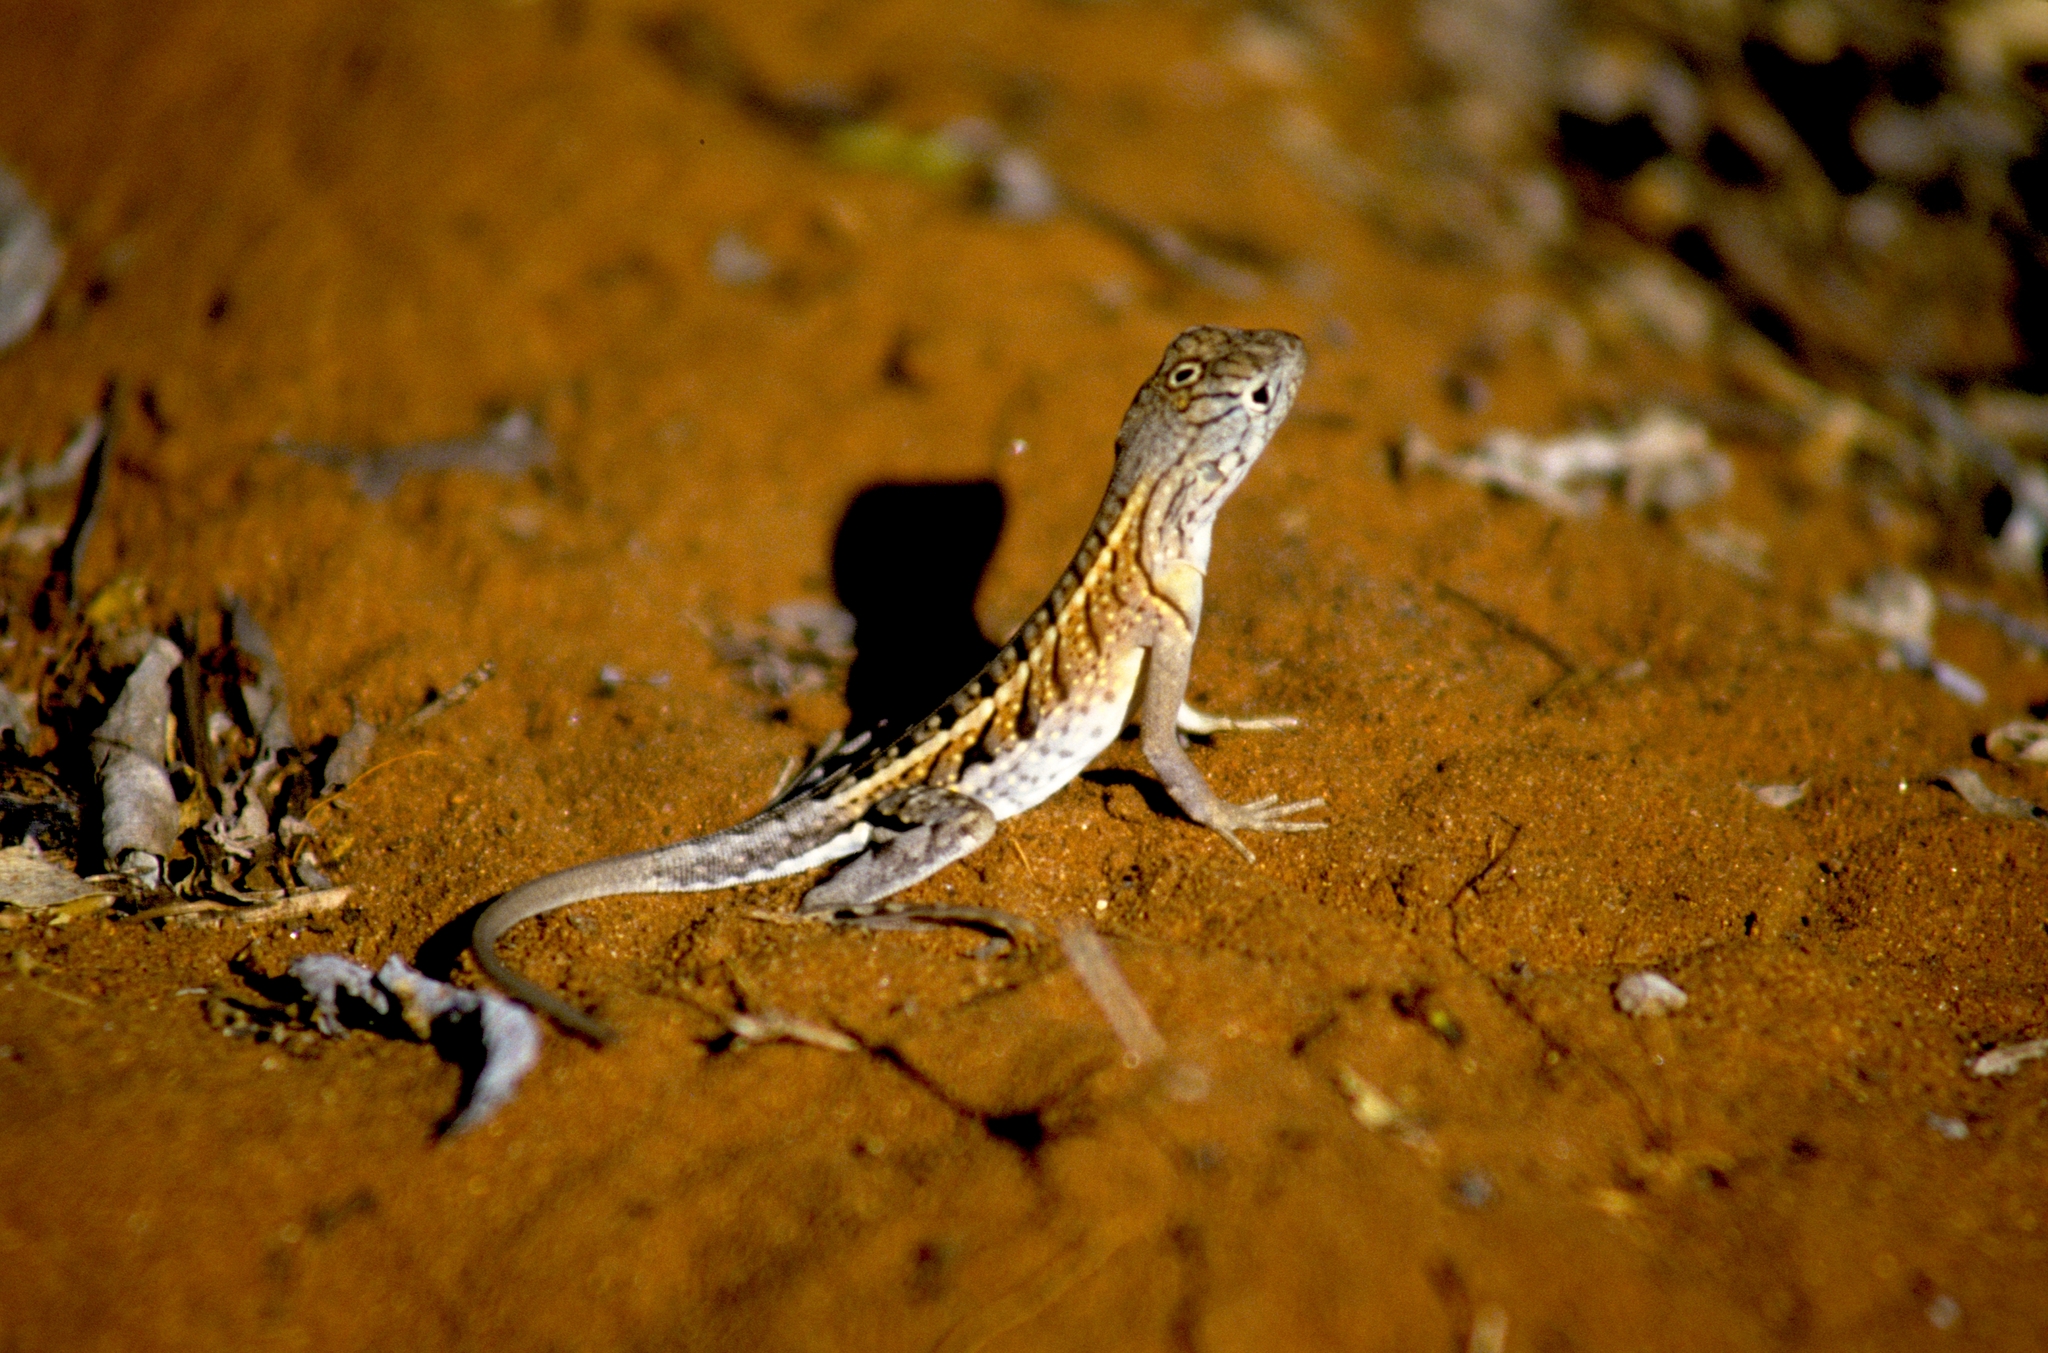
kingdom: Animalia
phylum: Chordata
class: Squamata
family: Opluridae
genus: Chalarodon
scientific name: Chalarodon madagascariensis
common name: Madagascar iguana
